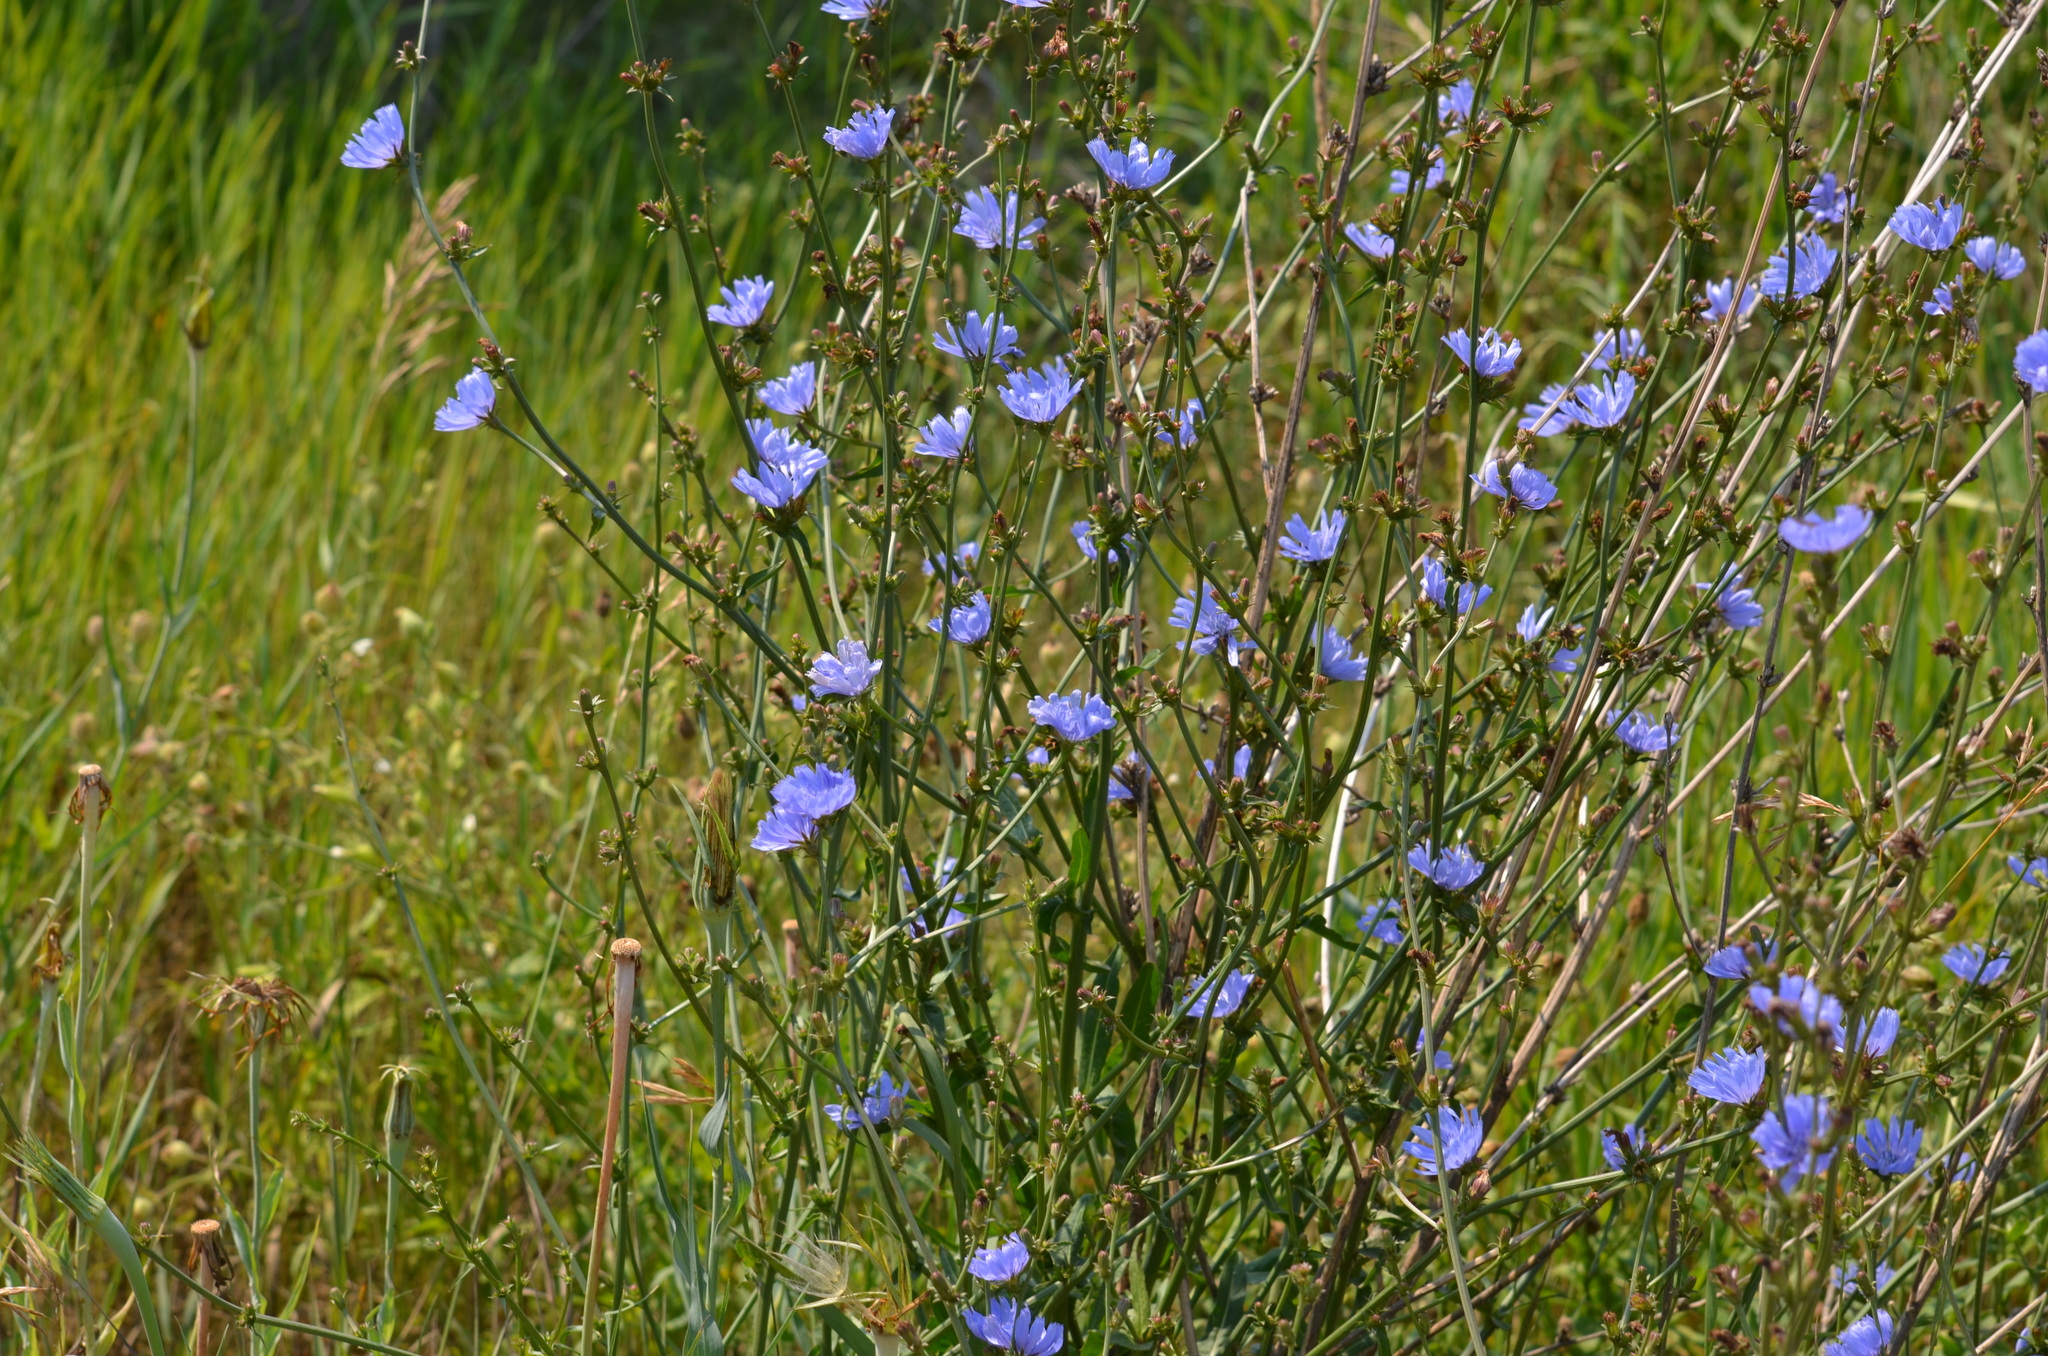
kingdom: Plantae
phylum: Tracheophyta
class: Magnoliopsida
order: Asterales
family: Asteraceae
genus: Cichorium
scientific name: Cichorium intybus
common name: Chicory
